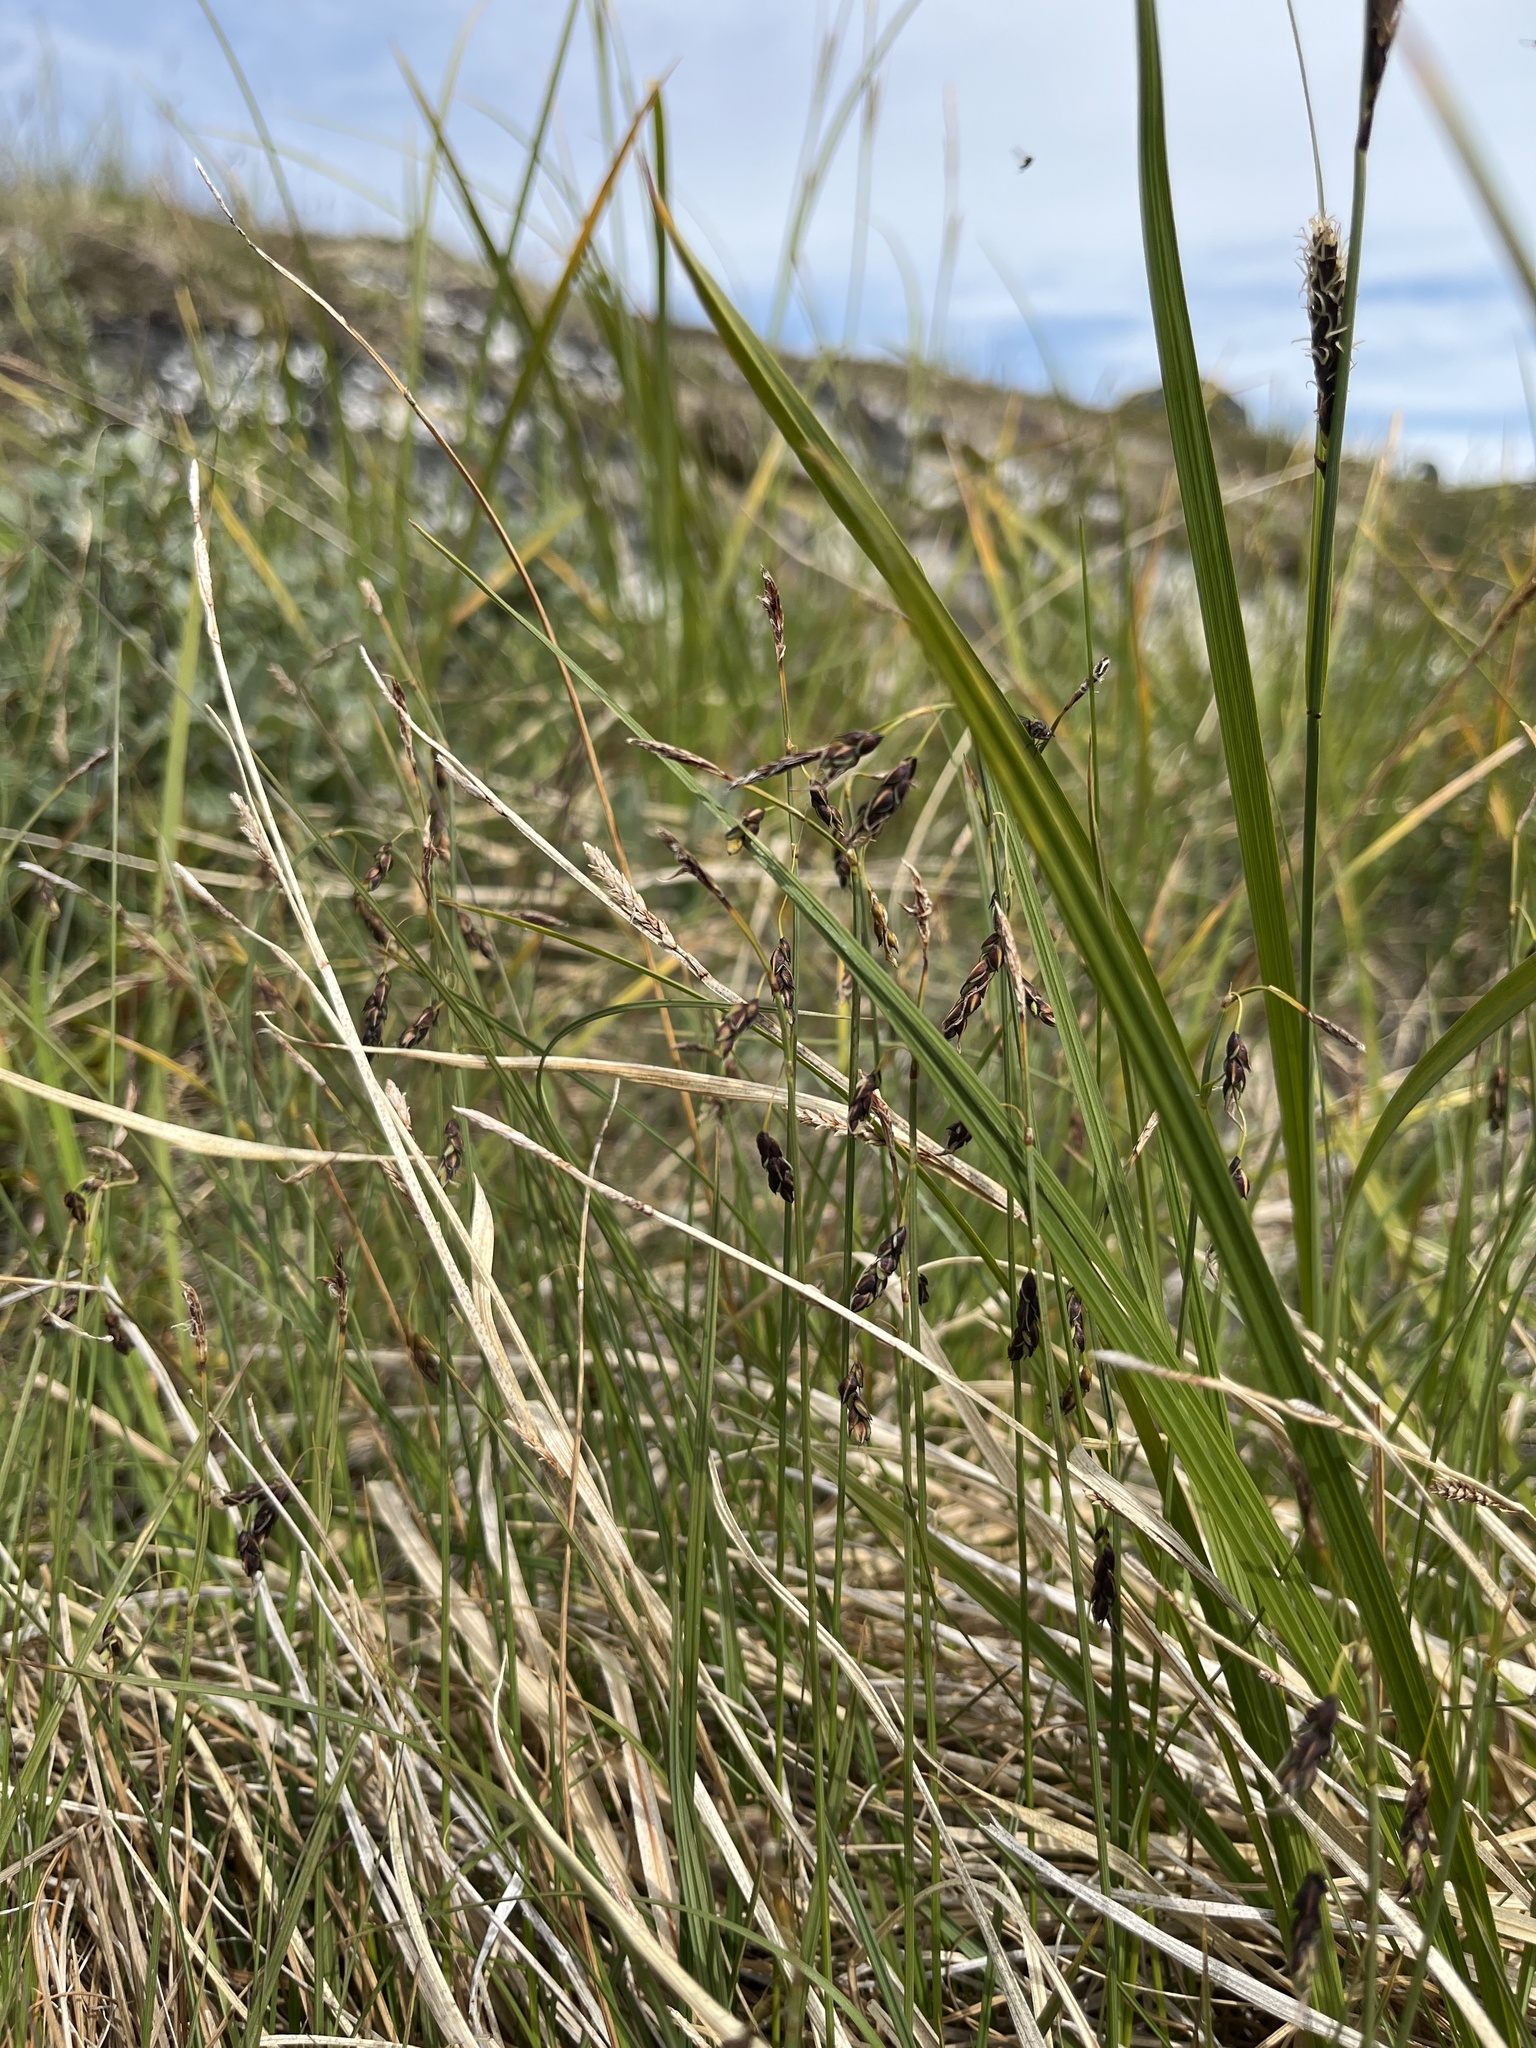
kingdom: Plantae
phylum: Tracheophyta
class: Liliopsida
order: Poales
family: Cyperaceae
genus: Carex
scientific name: Carex rariflora
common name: Loose-flowered alpine sedge
